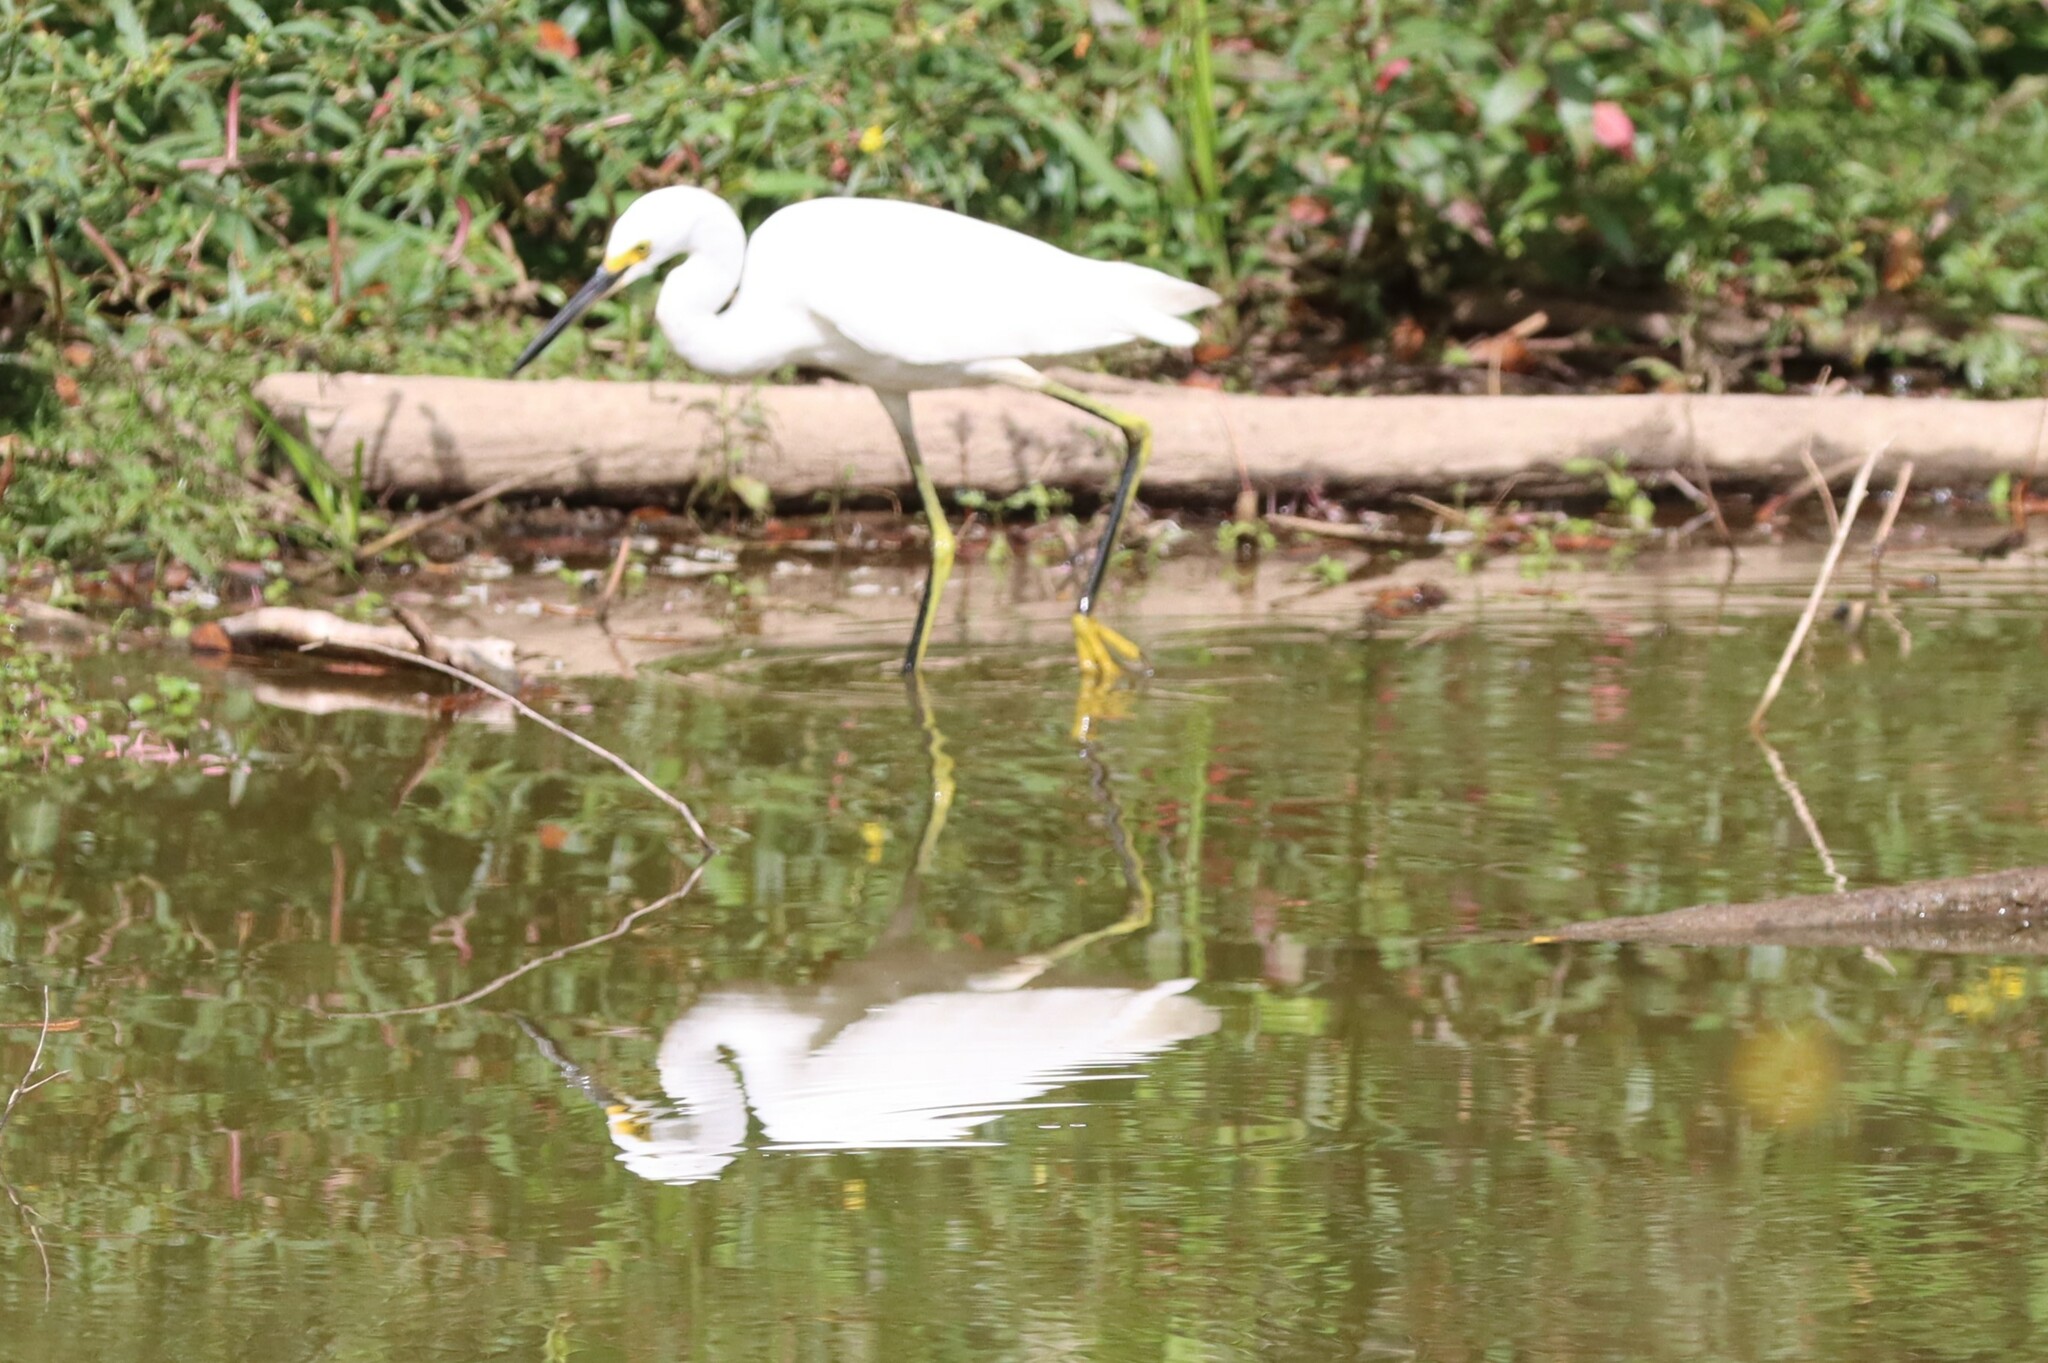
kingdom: Animalia
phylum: Chordata
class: Aves
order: Pelecaniformes
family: Ardeidae
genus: Egretta
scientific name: Egretta thula
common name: Snowy egret
